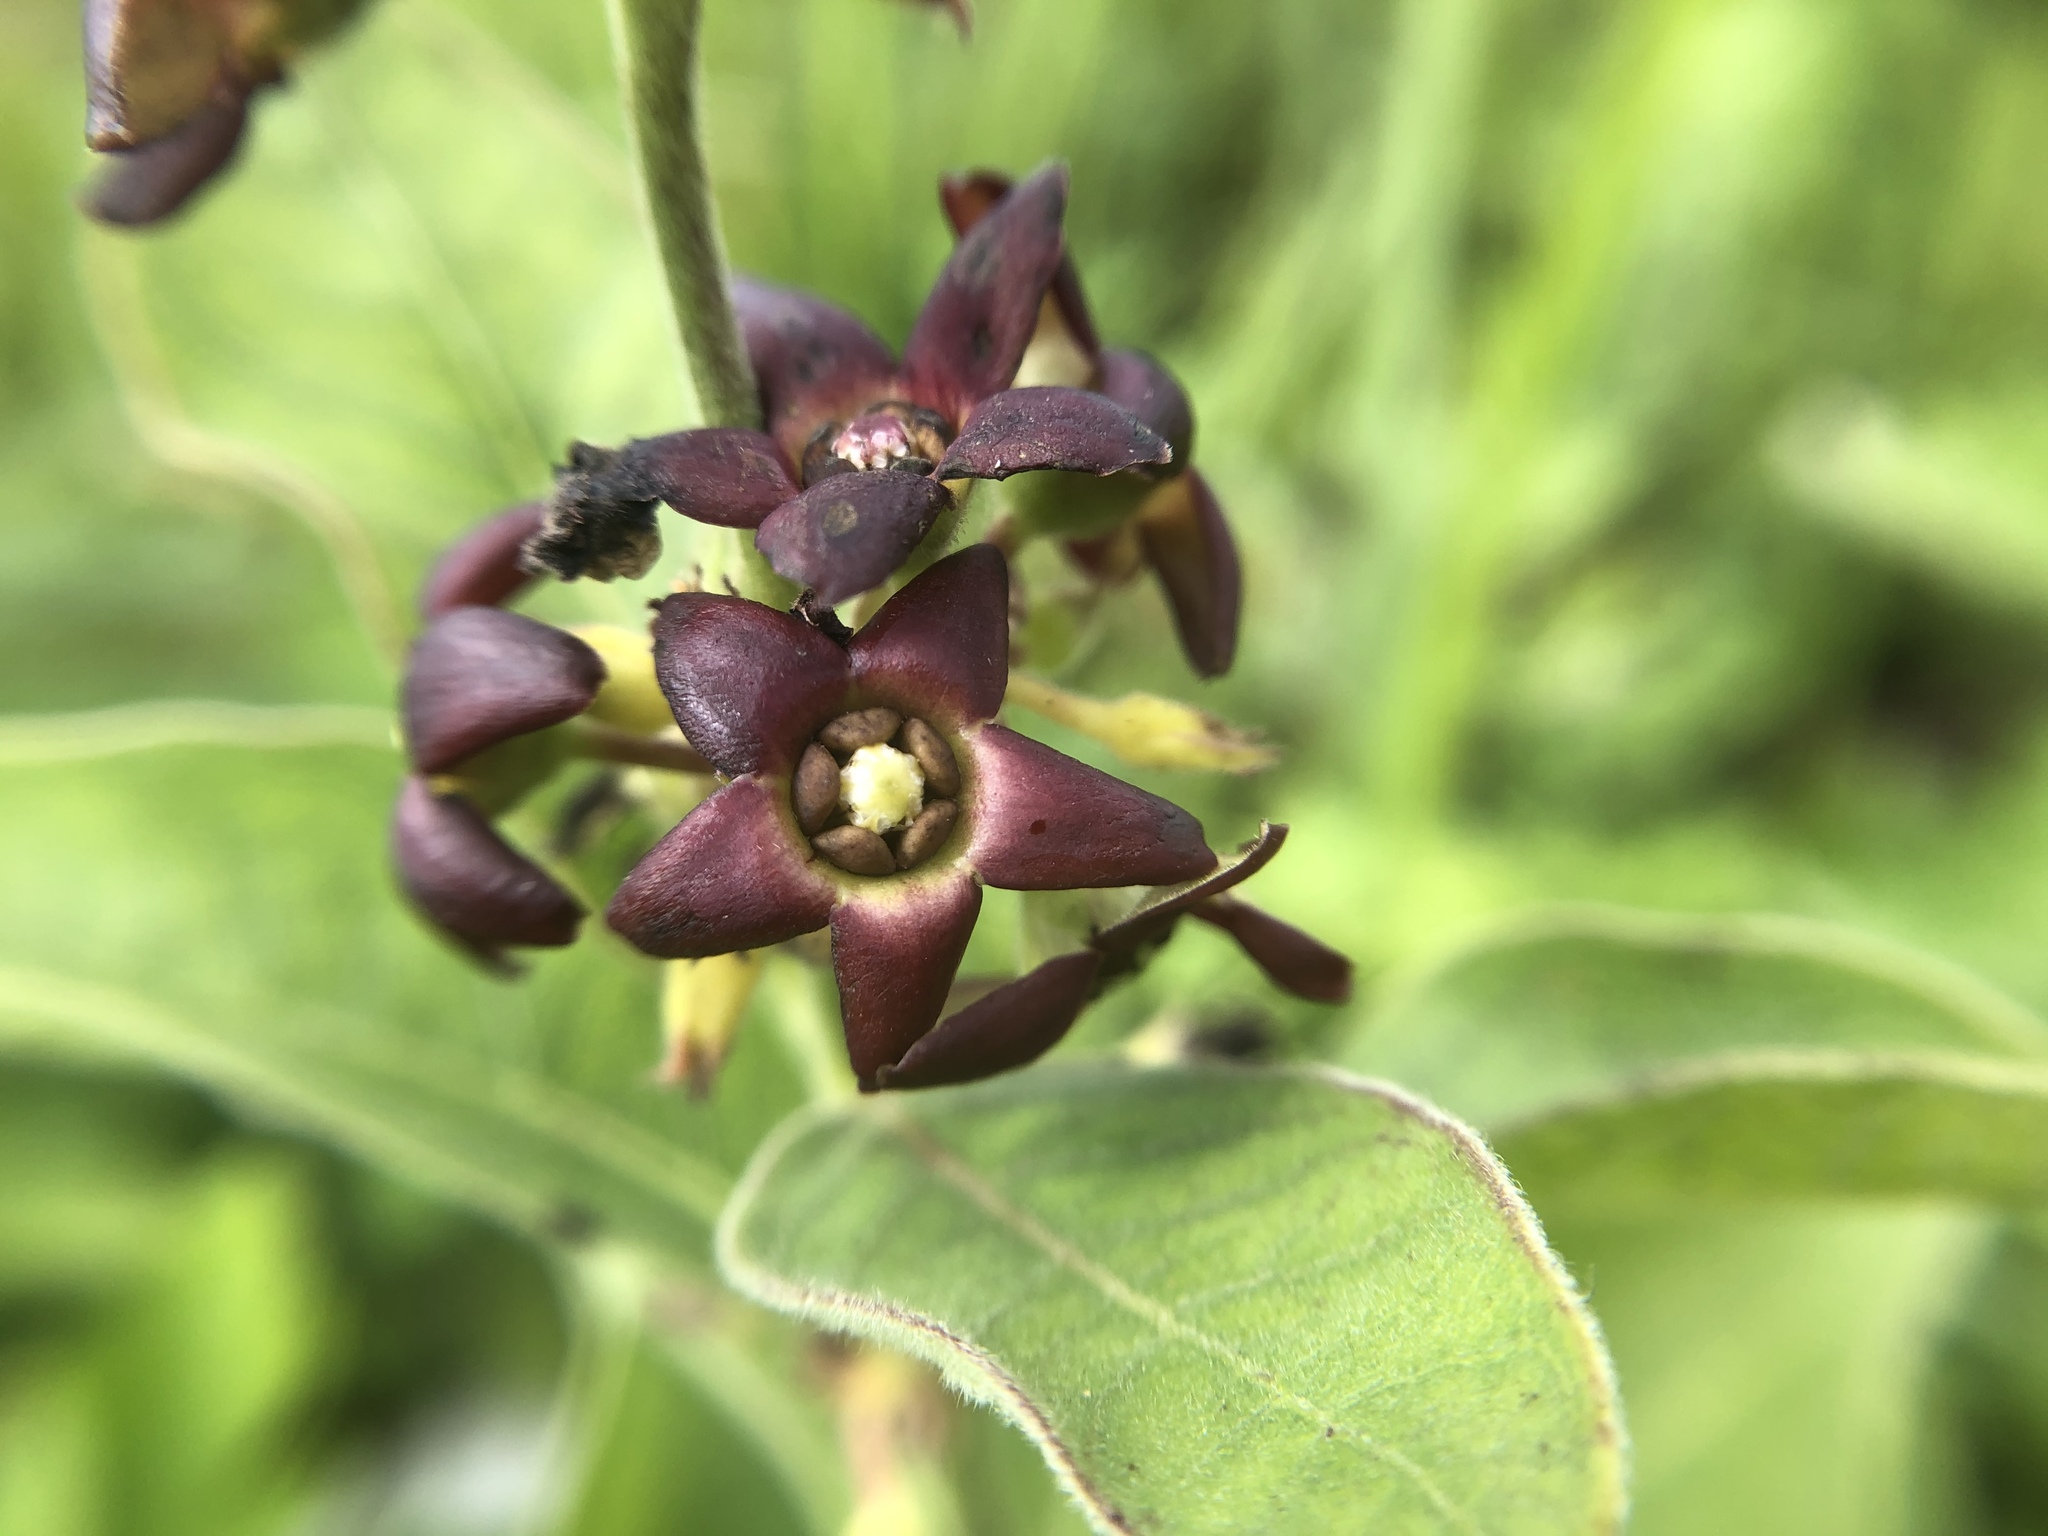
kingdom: Plantae
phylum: Tracheophyta
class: Magnoliopsida
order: Gentianales
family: Apocynaceae
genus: Vincetoxicum
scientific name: Vincetoxicum atratum
